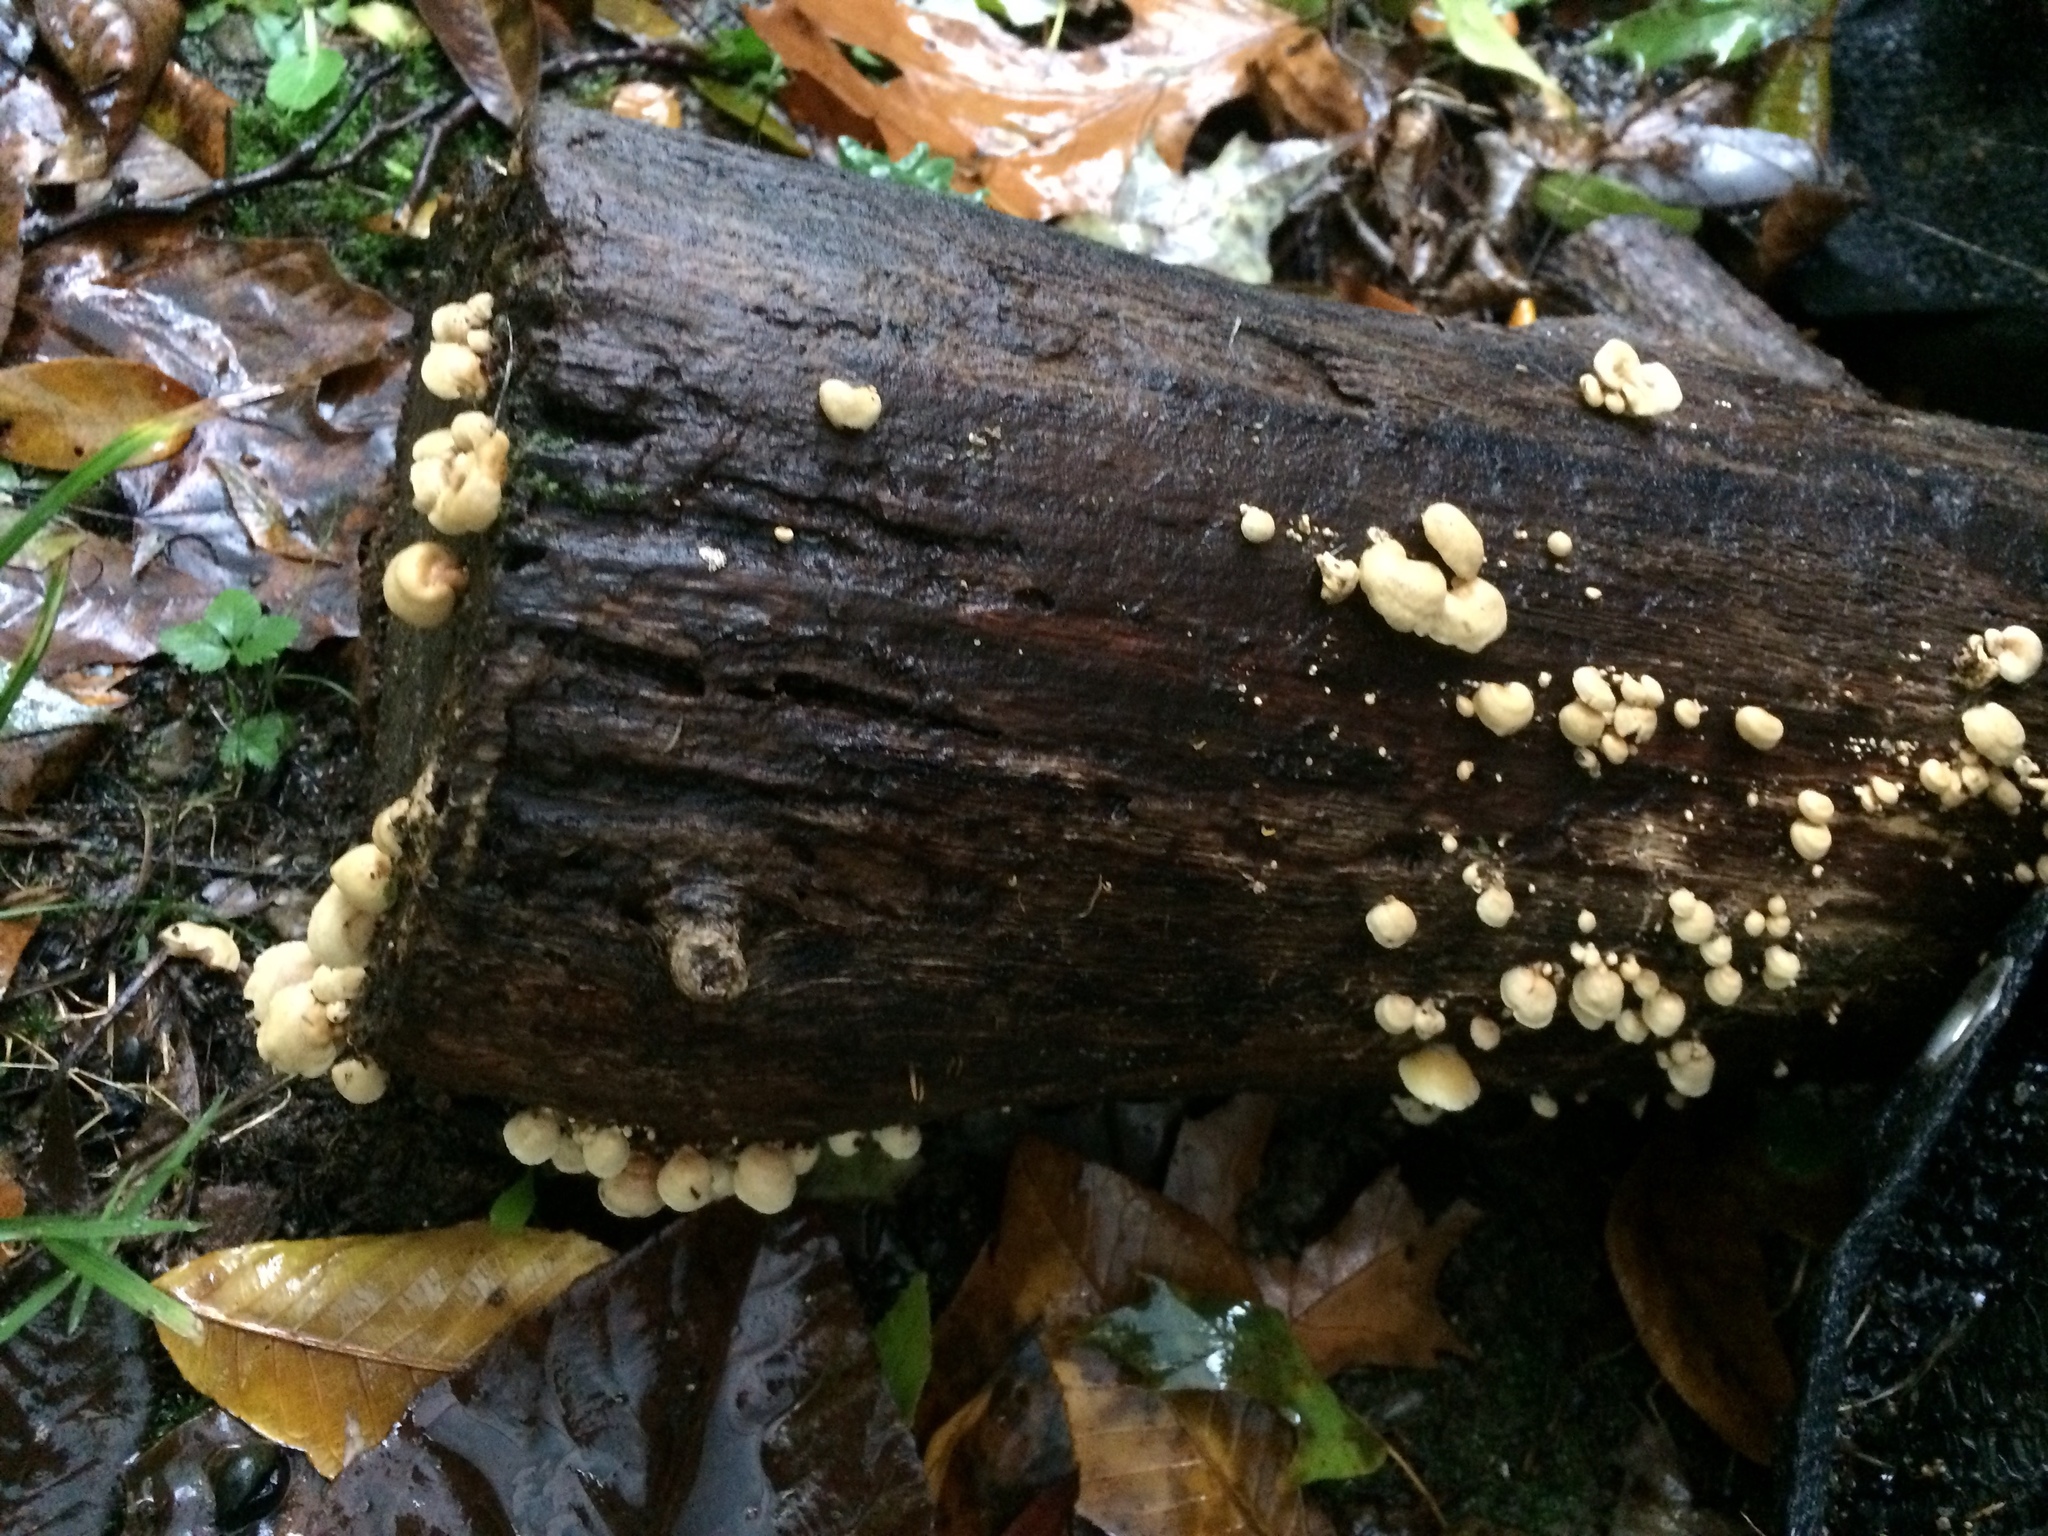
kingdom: Fungi
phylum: Basidiomycota
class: Agaricomycetes
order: Agaricales
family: Mycenaceae
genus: Panellus
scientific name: Panellus stipticus
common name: Bitter oysterling
